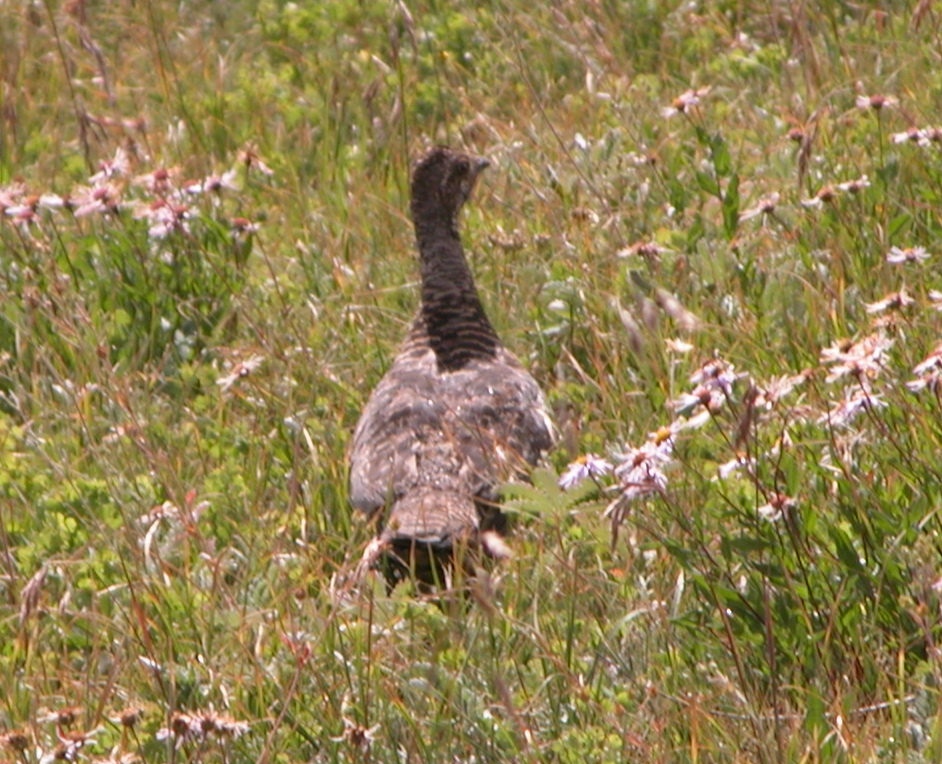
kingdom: Animalia
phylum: Chordata
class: Aves
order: Galliformes
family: Phasianidae
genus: Dendragapus
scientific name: Dendragapus obscurus
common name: Dusky grouse
